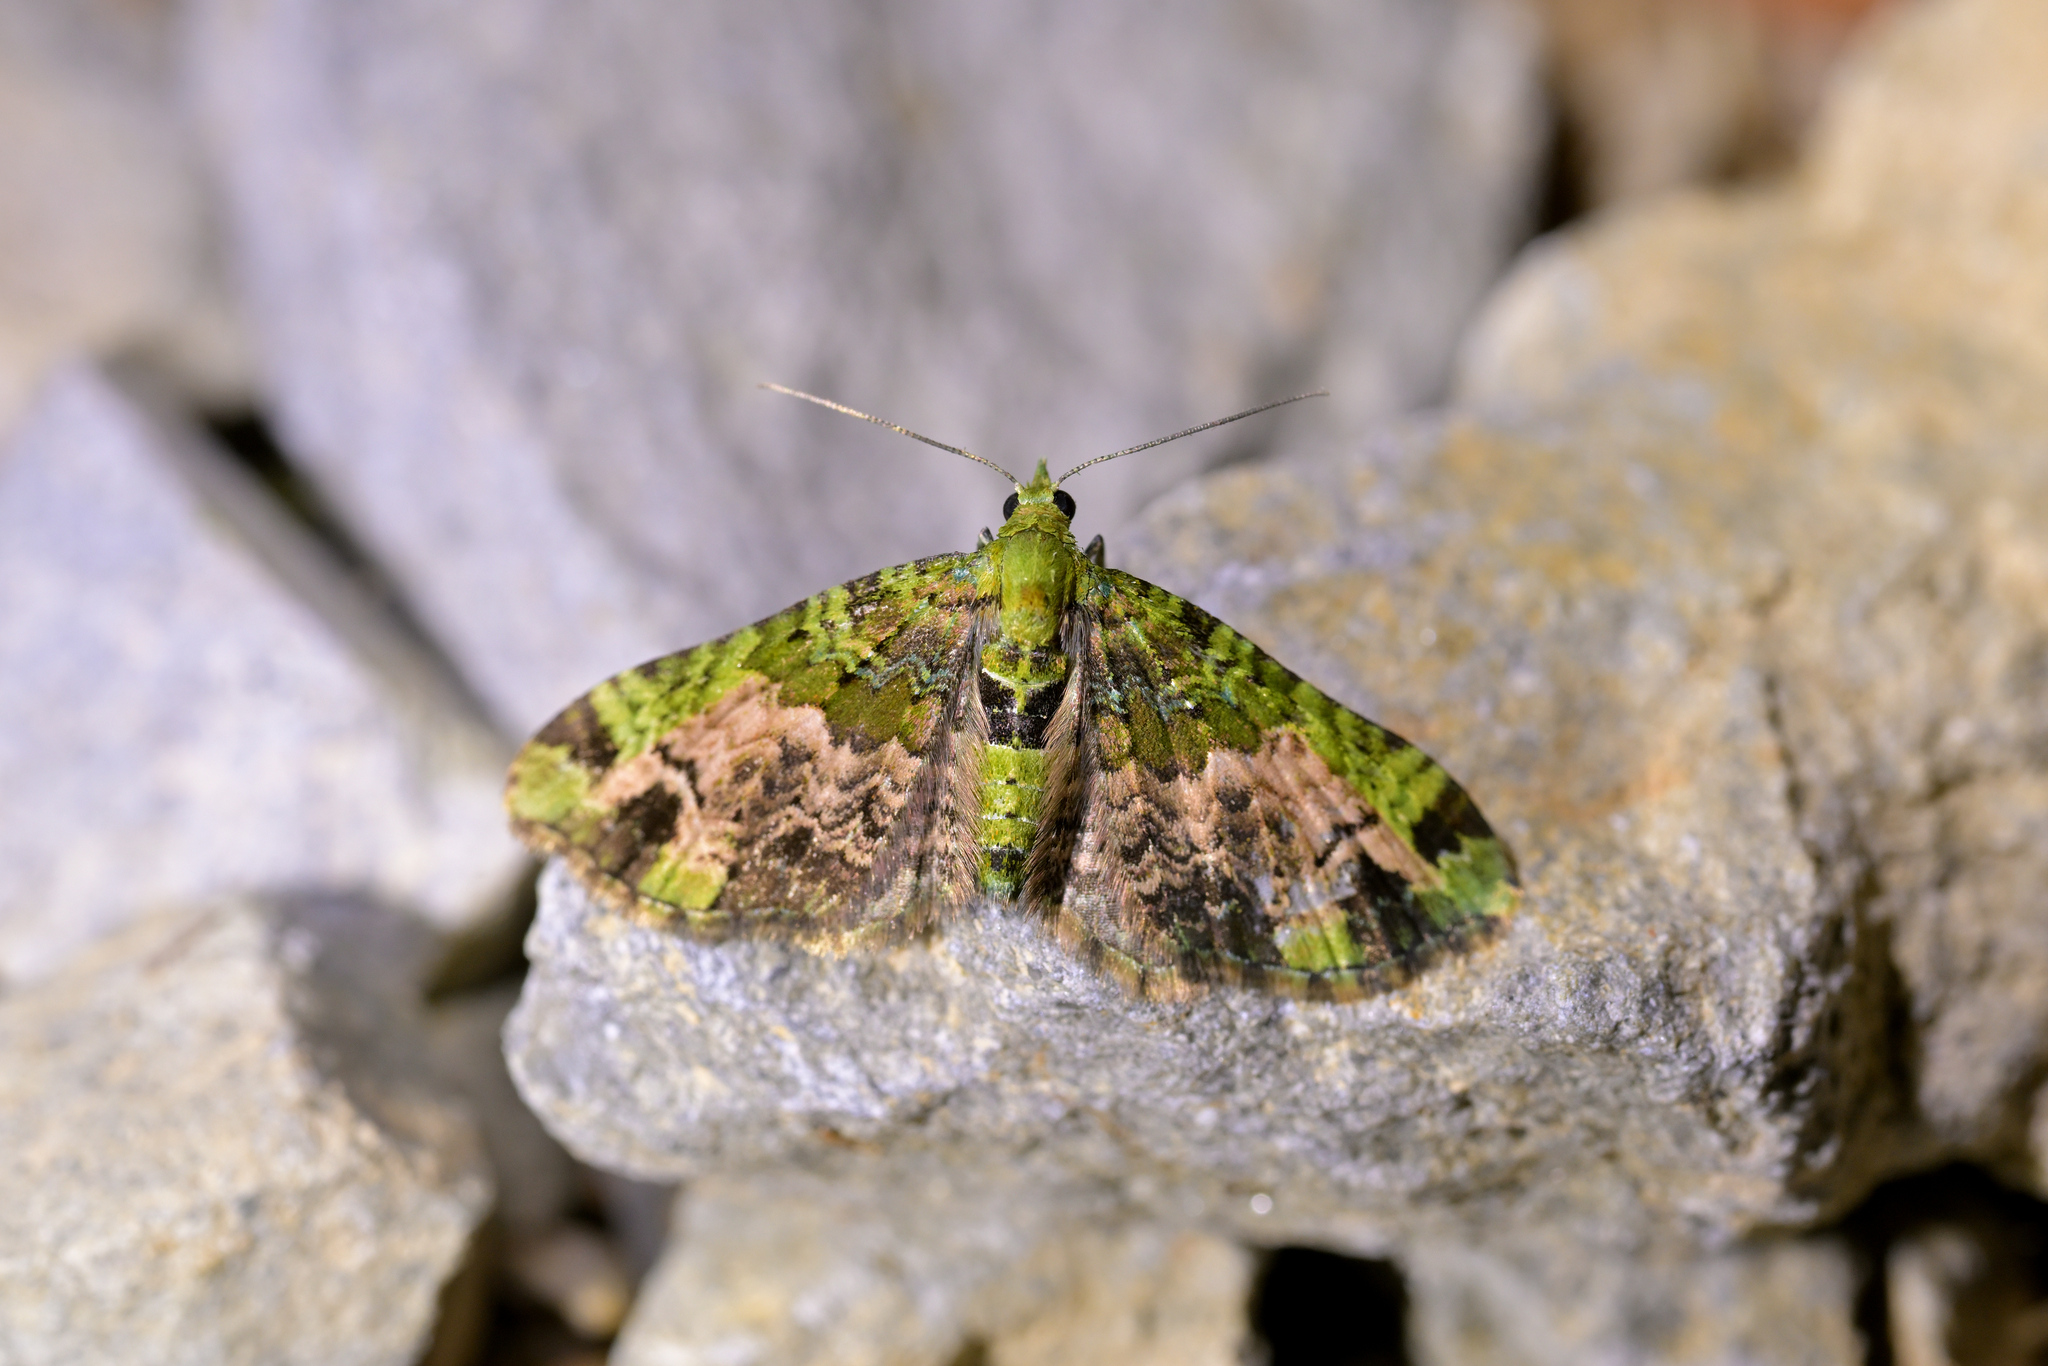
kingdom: Animalia
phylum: Arthropoda
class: Insecta
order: Lepidoptera
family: Geometridae
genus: Pasiphila
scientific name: Pasiphila magnimaculata
